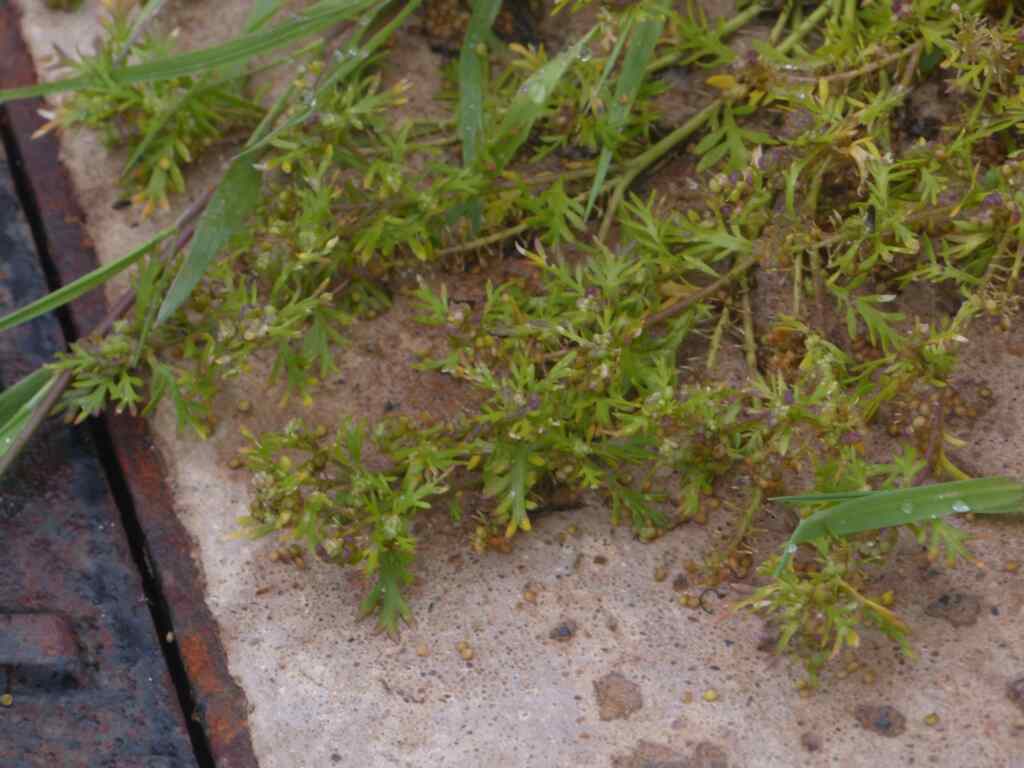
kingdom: Plantae
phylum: Tracheophyta
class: Magnoliopsida
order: Brassicales
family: Brassicaceae
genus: Lepidium
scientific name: Lepidium didymum
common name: Lesser swinecress
